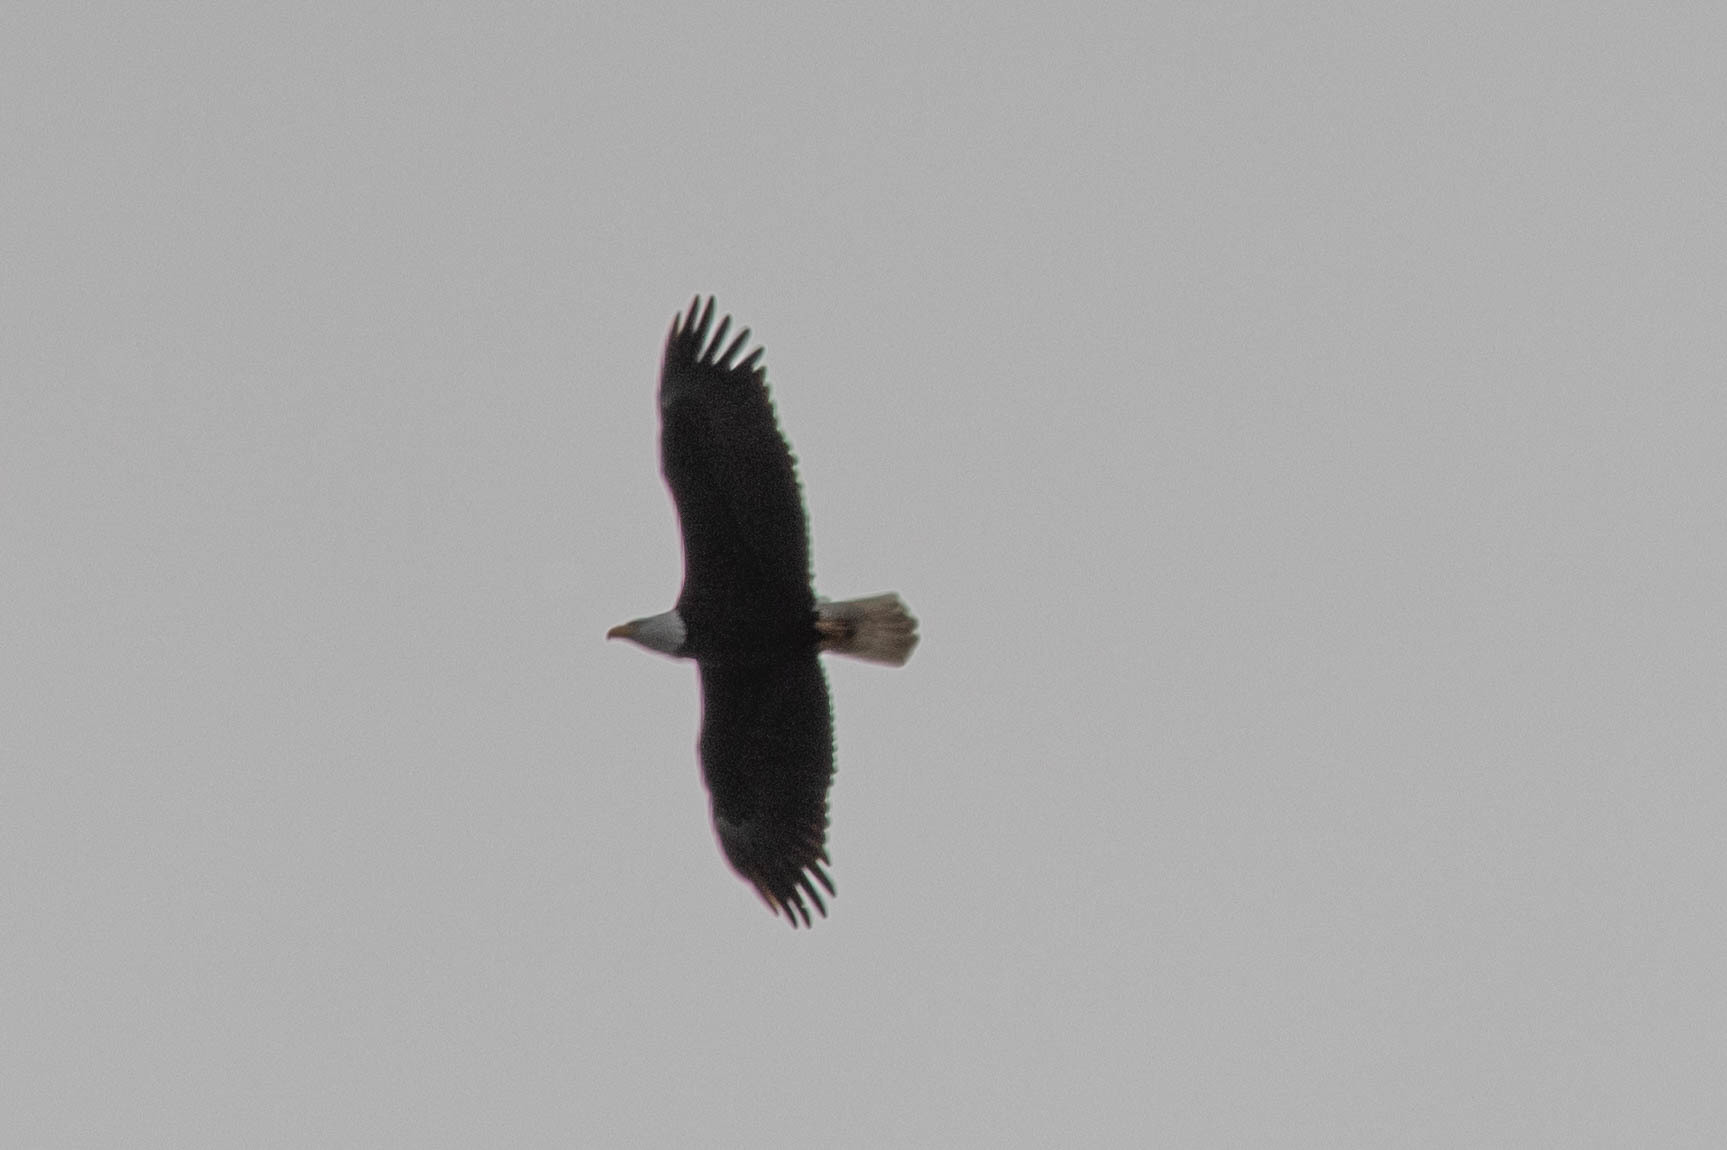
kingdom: Animalia
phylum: Chordata
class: Aves
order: Accipitriformes
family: Accipitridae
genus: Haliaeetus
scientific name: Haliaeetus leucocephalus
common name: Bald eagle
